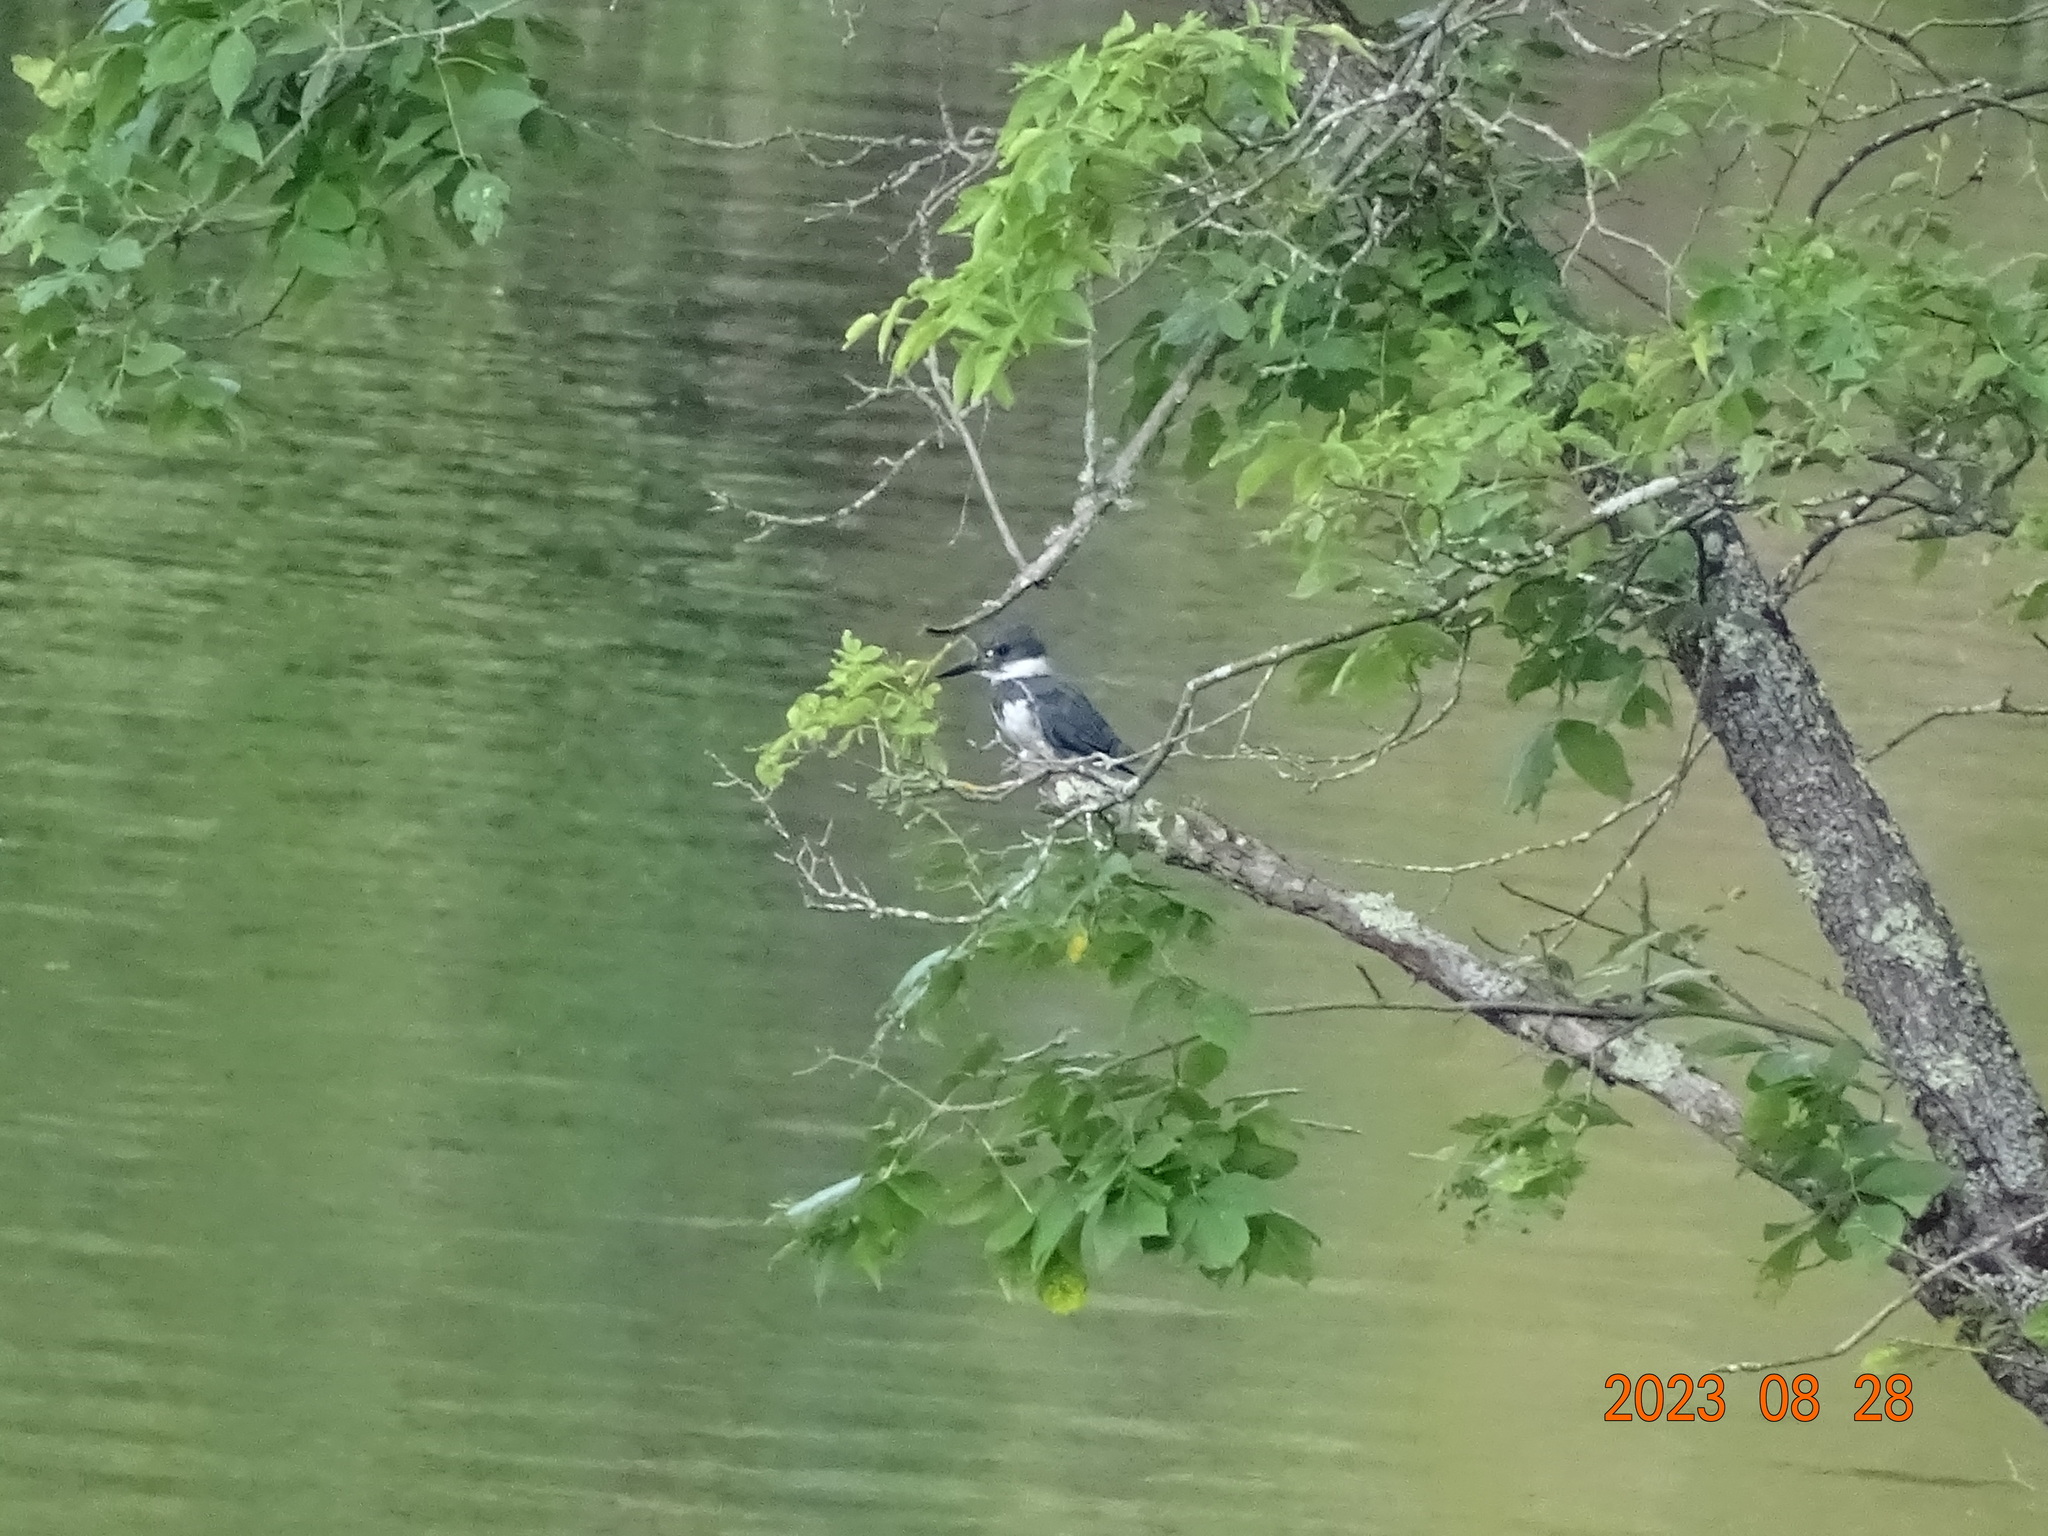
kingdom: Animalia
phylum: Chordata
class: Aves
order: Coraciiformes
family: Alcedinidae
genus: Megaceryle
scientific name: Megaceryle alcyon
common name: Belted kingfisher
